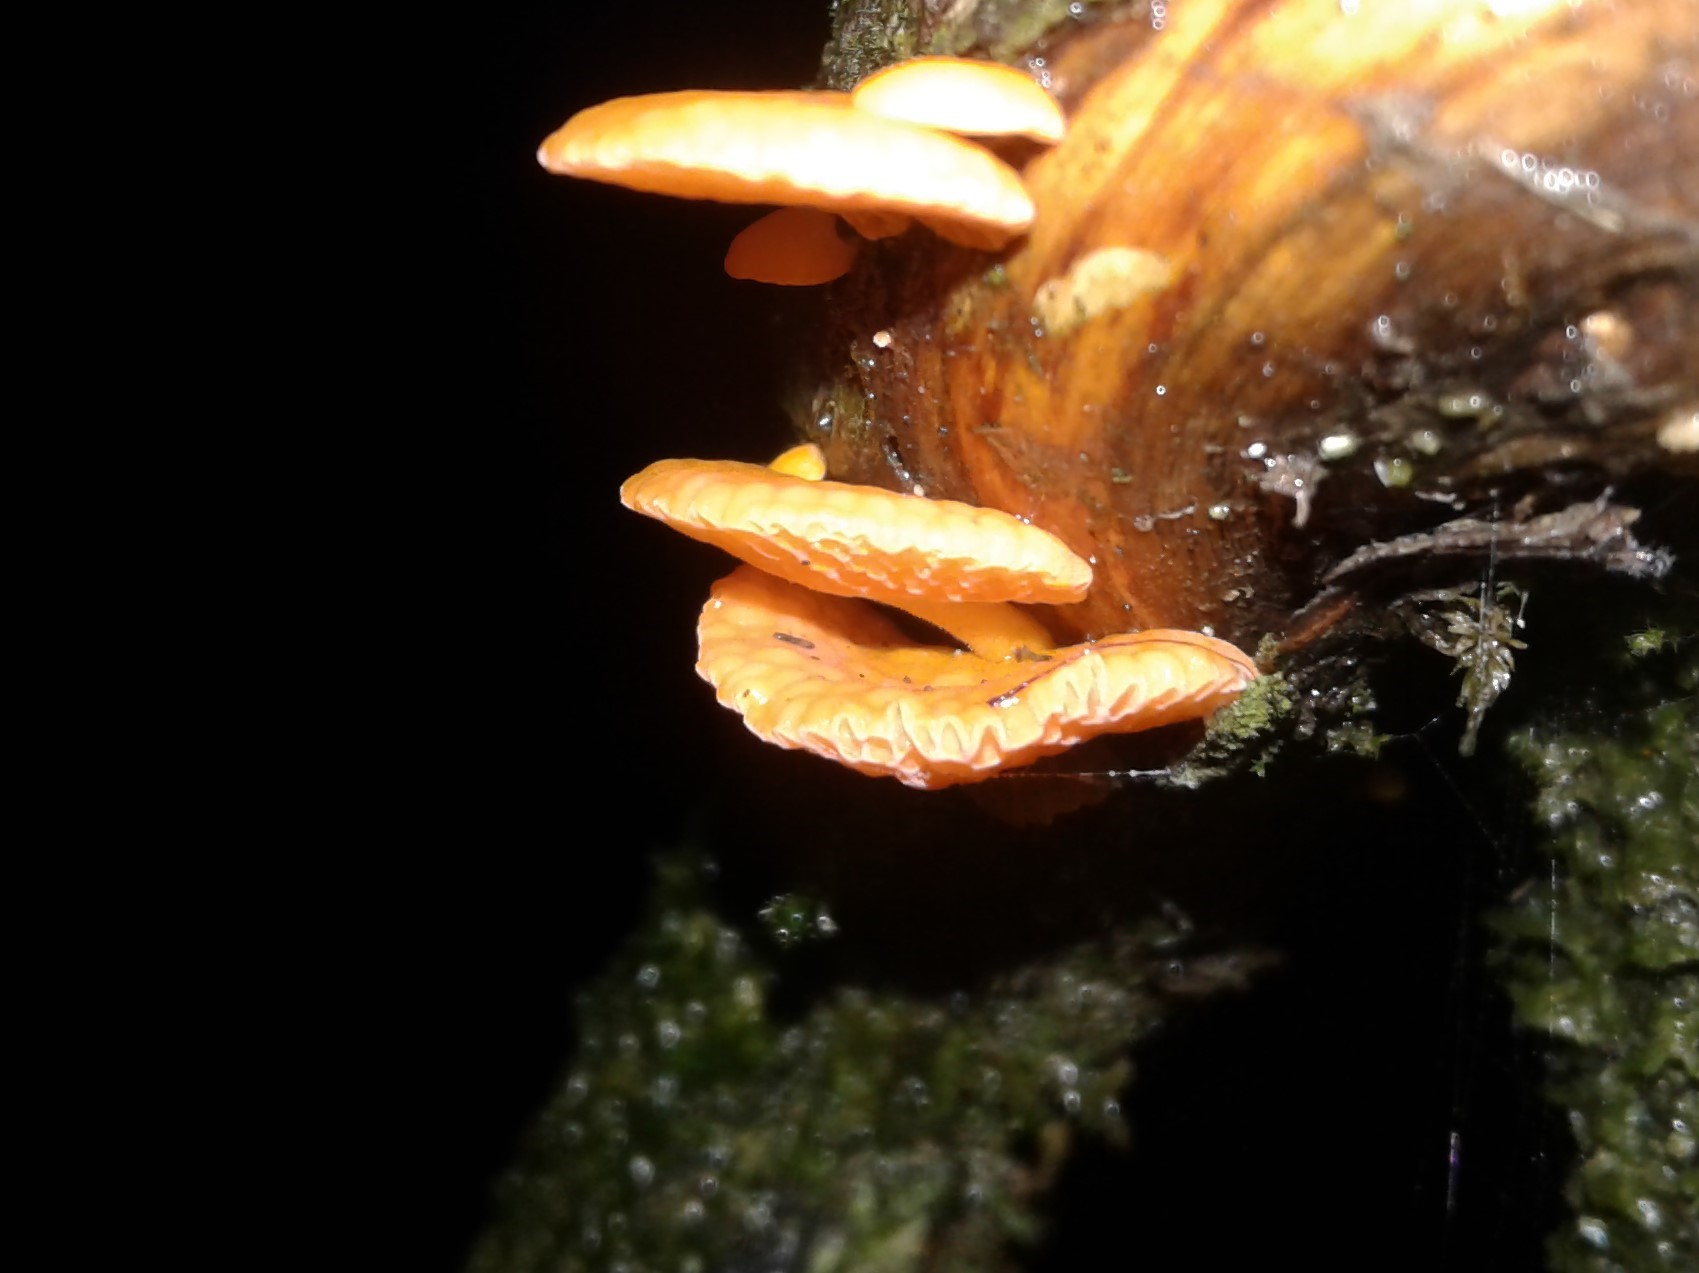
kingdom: Fungi
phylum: Basidiomycota
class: Agaricomycetes
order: Agaricales
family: Mycenaceae
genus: Favolaschia
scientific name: Favolaschia claudopus
